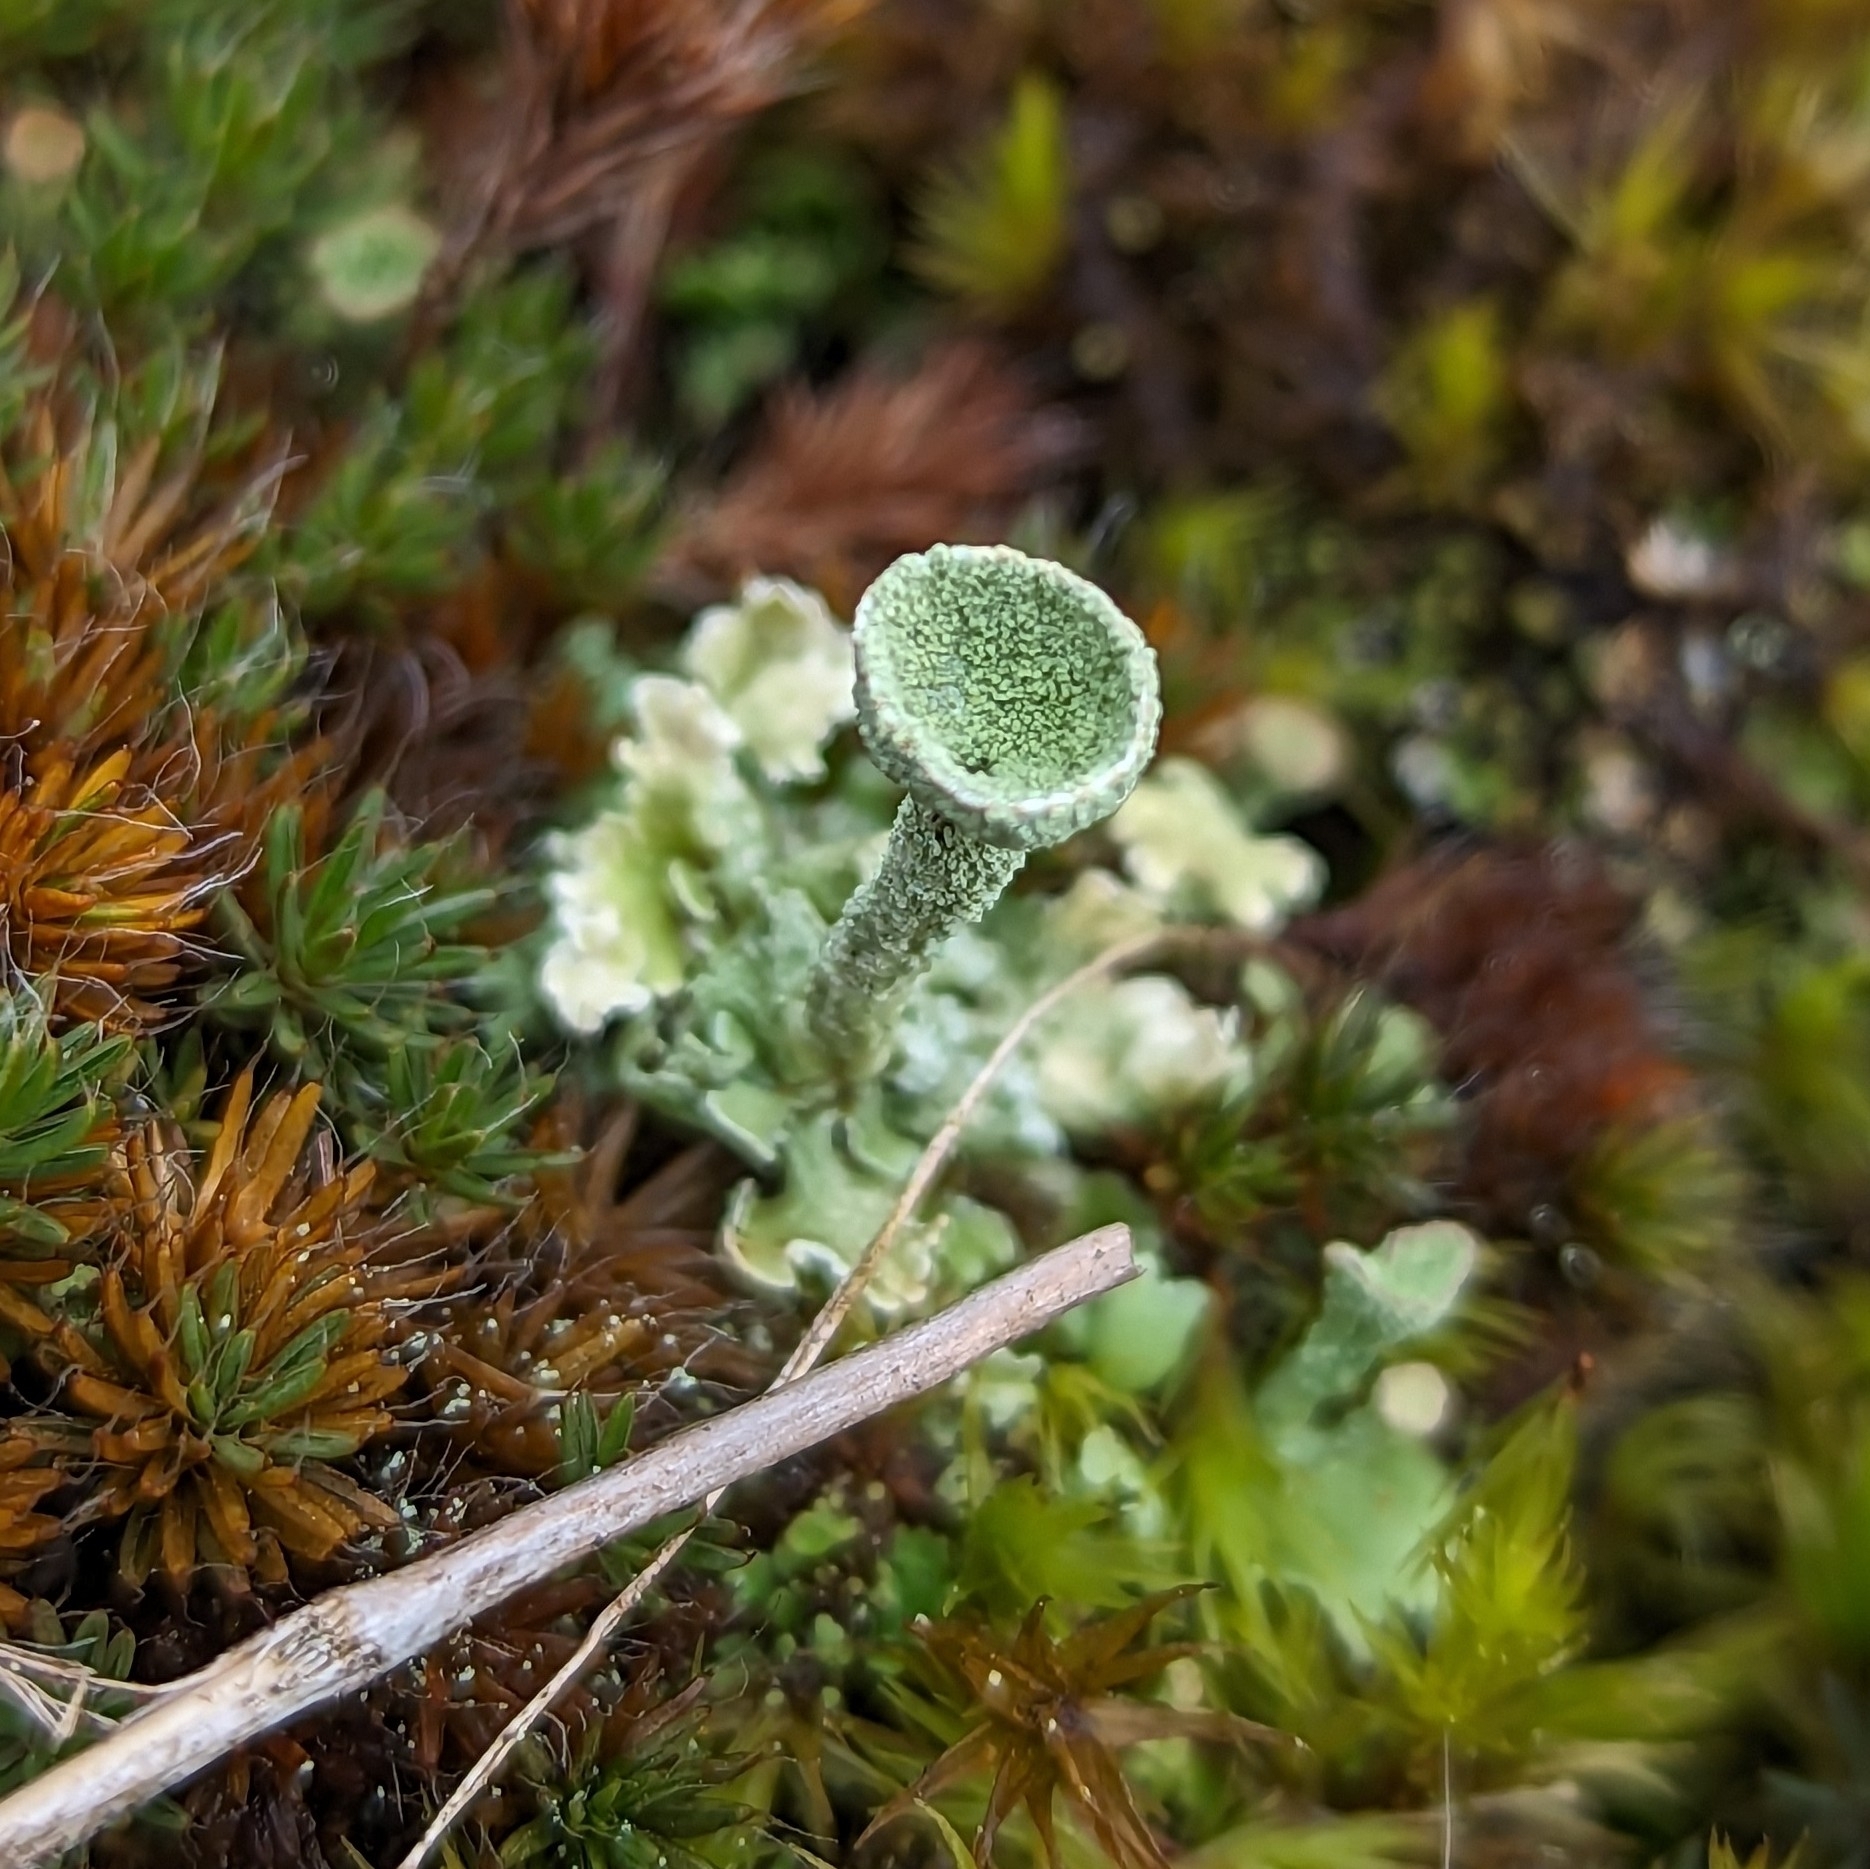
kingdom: Fungi
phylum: Ascomycota
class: Lecanoromycetes
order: Lecanorales
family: Cladoniaceae
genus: Cladonia
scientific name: Cladonia fimbriata
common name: Powdered trumpet lichen
